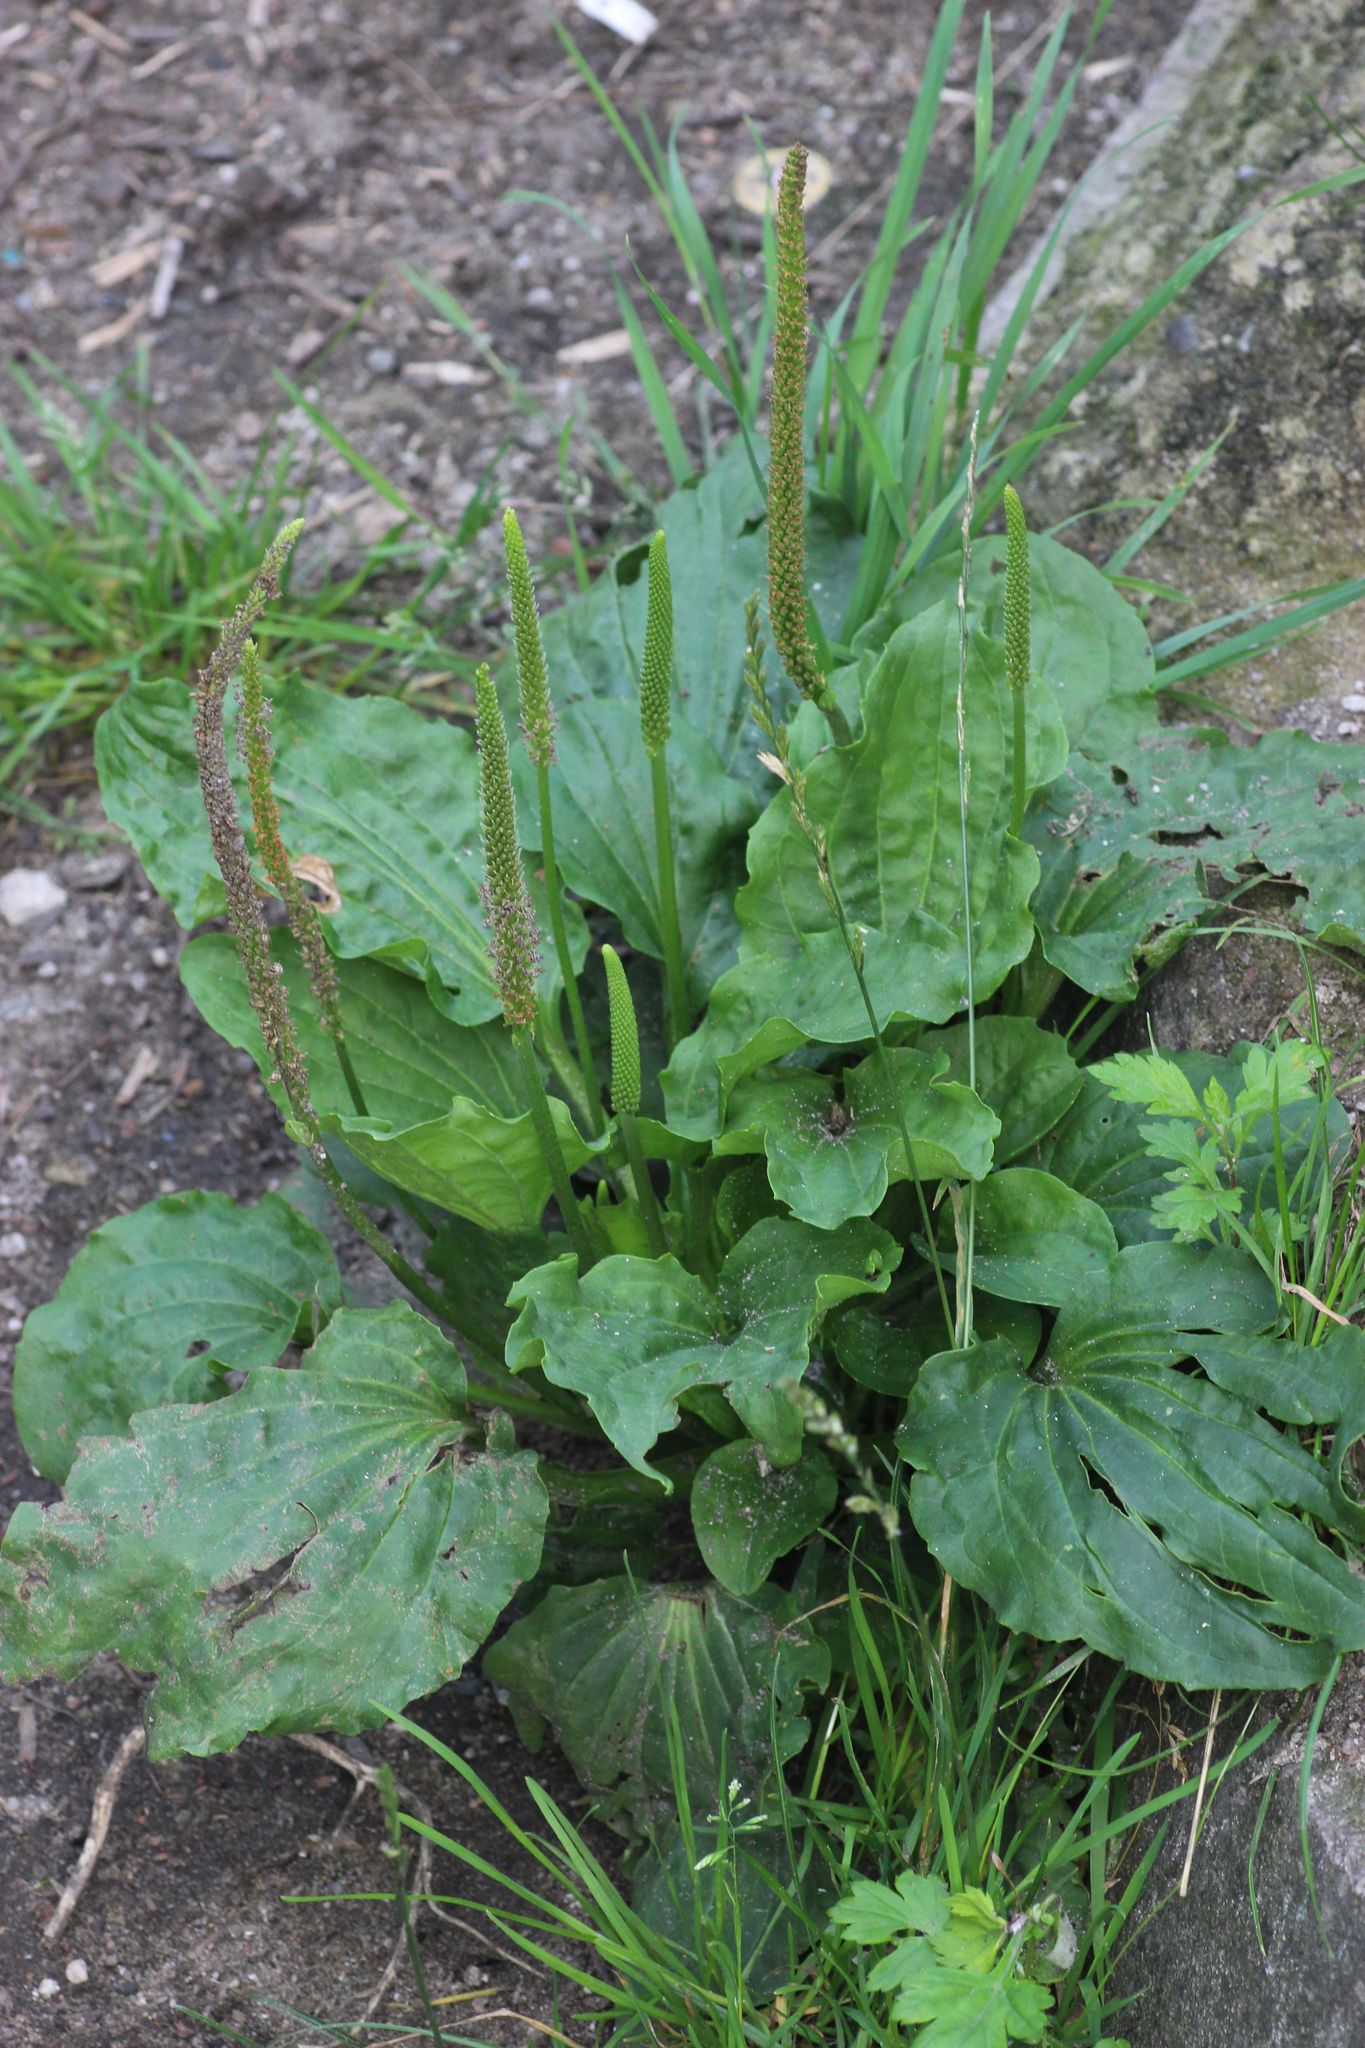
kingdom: Plantae
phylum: Tracheophyta
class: Magnoliopsida
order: Lamiales
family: Plantaginaceae
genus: Plantago
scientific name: Plantago major
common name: Common plantain
